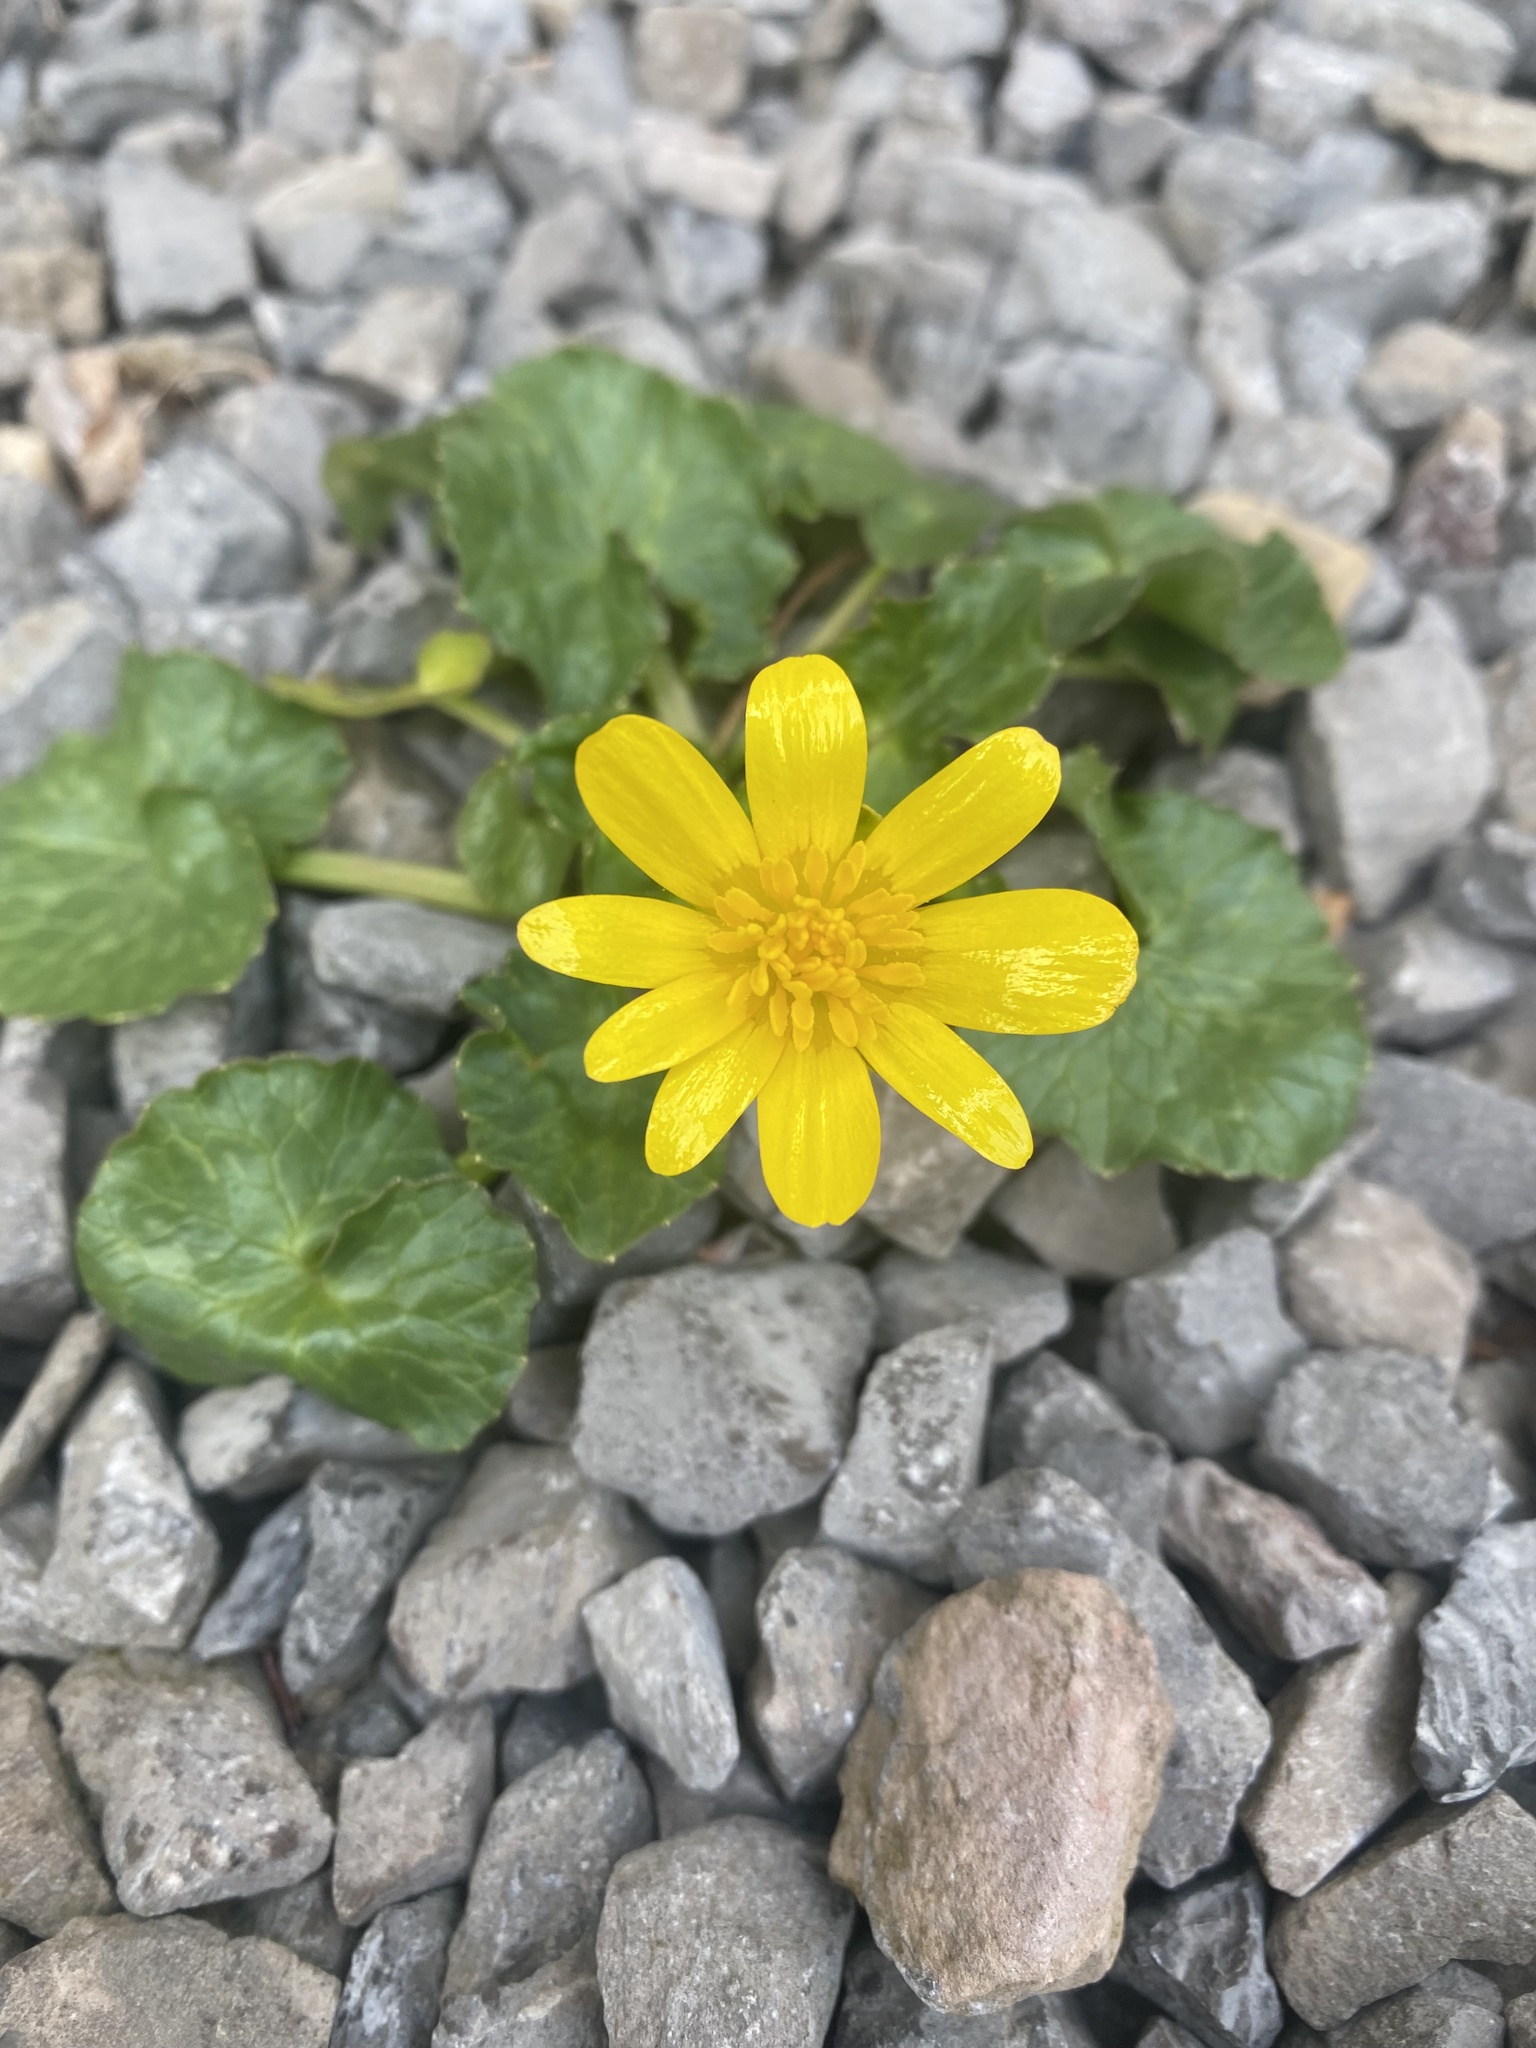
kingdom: Plantae
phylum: Tracheophyta
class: Magnoliopsida
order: Ranunculales
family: Ranunculaceae
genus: Ficaria
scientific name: Ficaria verna
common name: Lesser celandine
